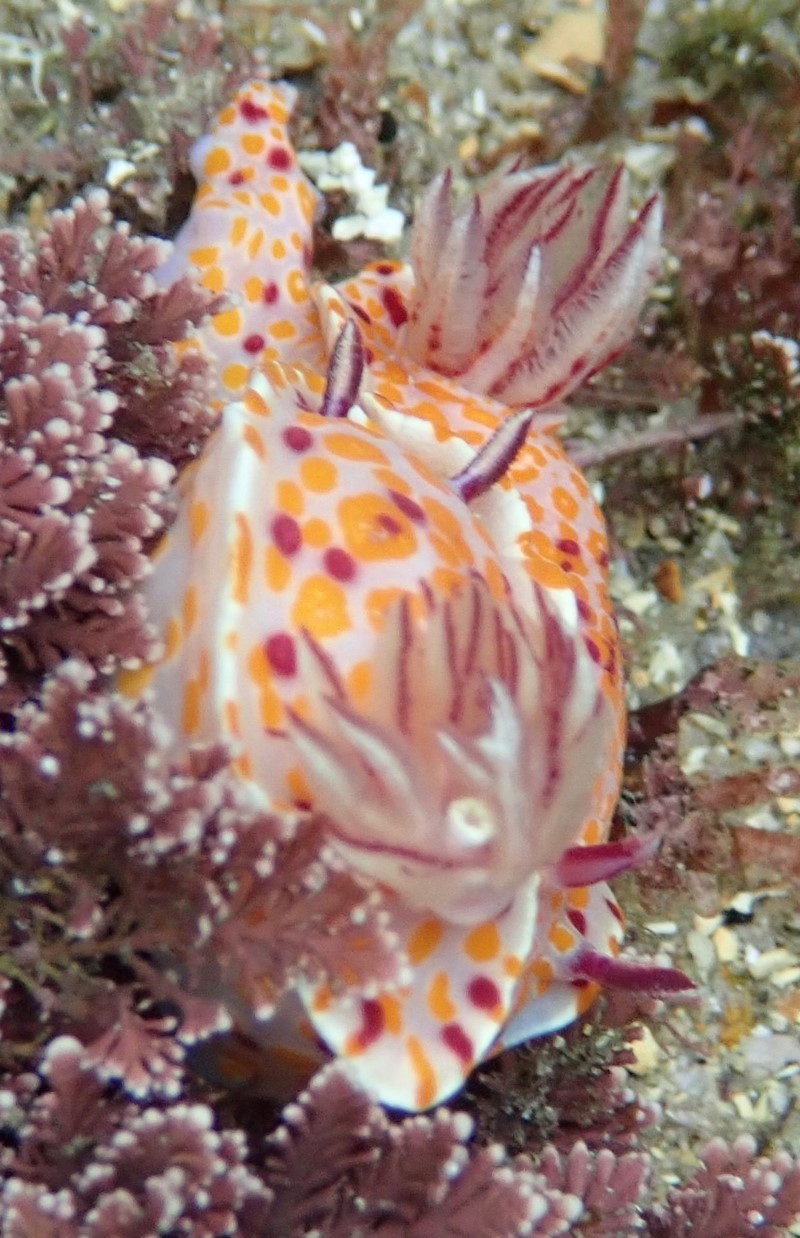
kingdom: Animalia
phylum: Mollusca
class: Gastropoda
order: Nudibranchia
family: Chromodorididae
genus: Ceratosoma
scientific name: Ceratosoma amoenum
